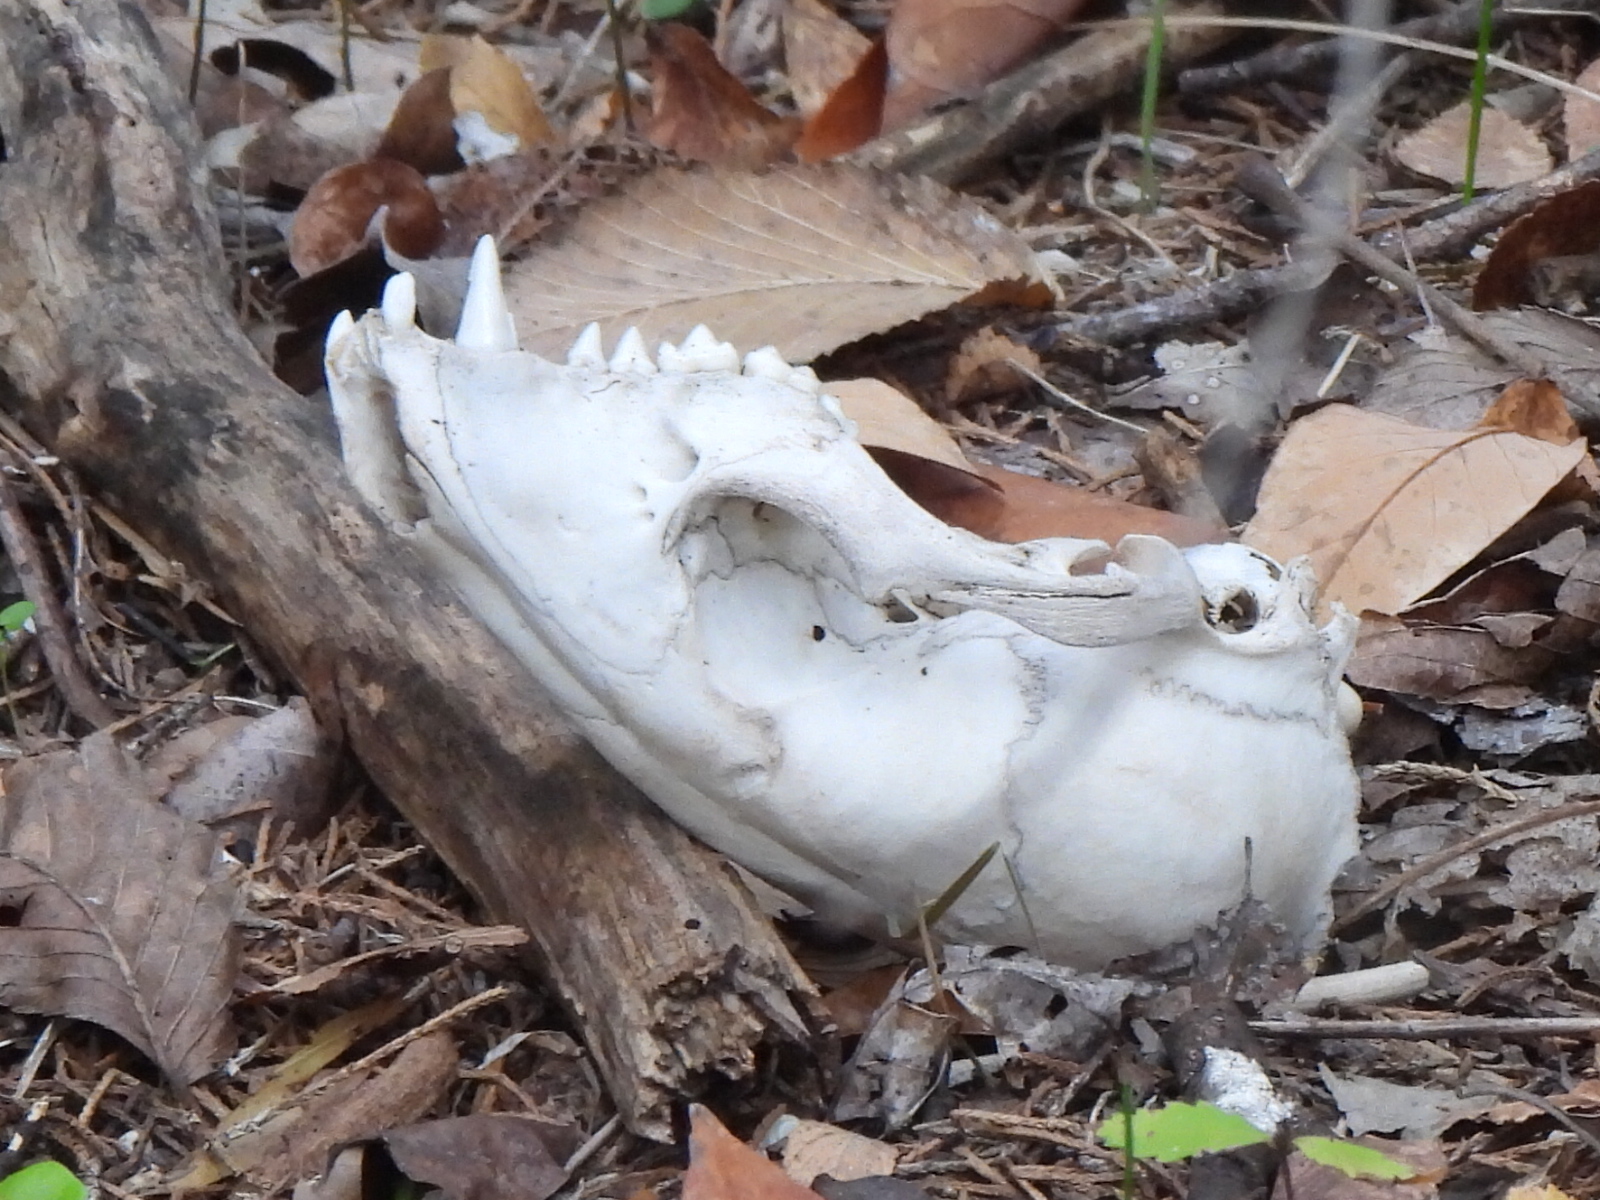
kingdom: Animalia
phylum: Chordata
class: Mammalia
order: Carnivora
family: Procyonidae
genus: Procyon
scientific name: Procyon lotor
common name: Raccoon
